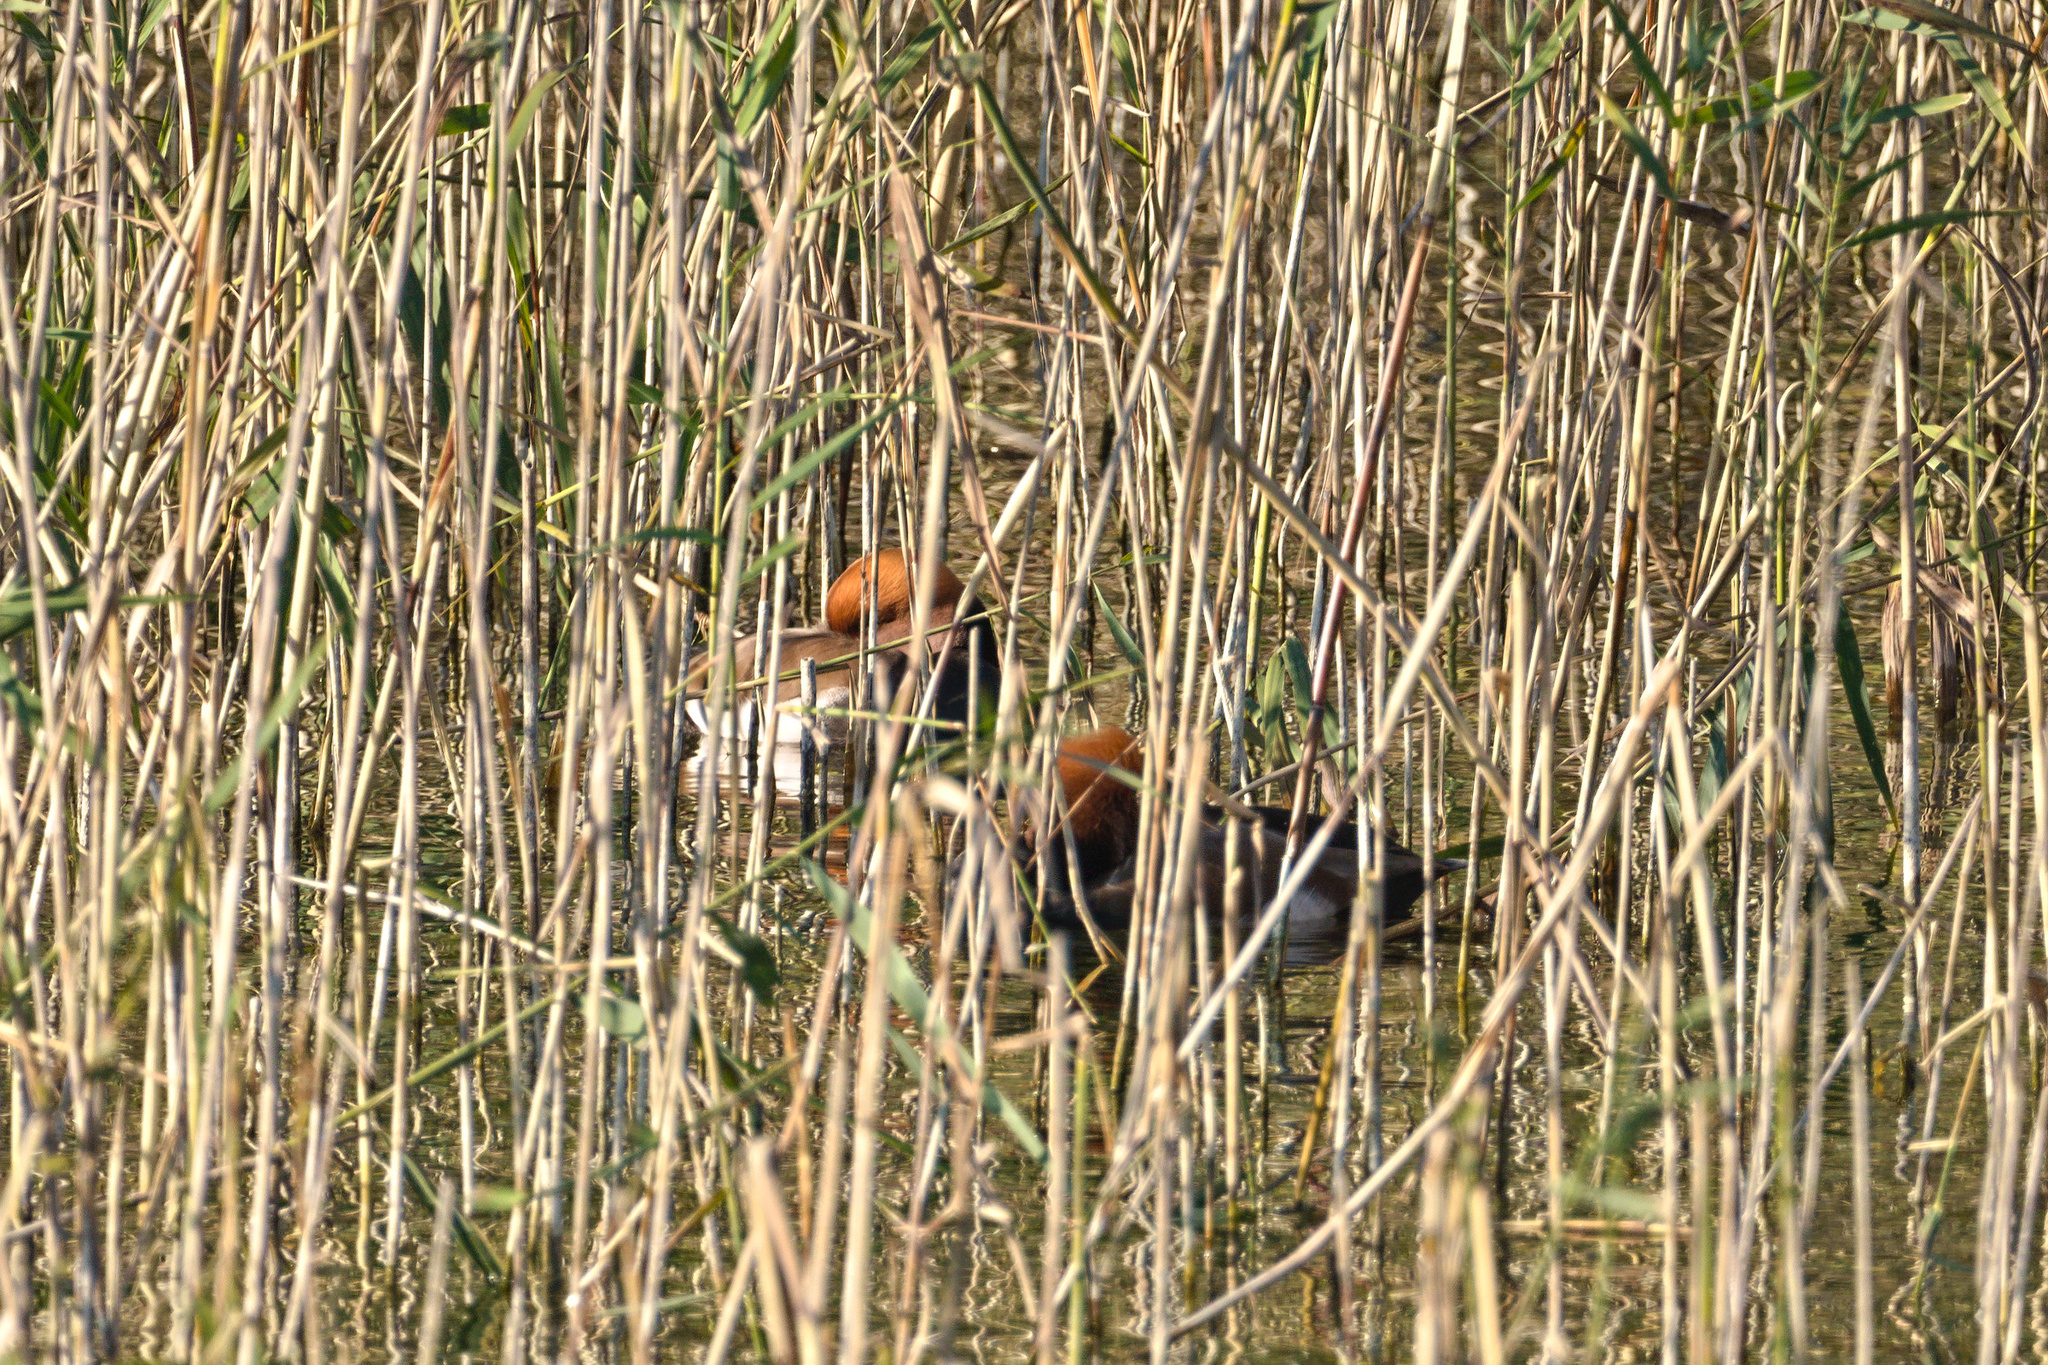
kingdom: Animalia
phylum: Chordata
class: Aves
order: Anseriformes
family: Anatidae
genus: Netta
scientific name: Netta rufina
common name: Red-crested pochard
